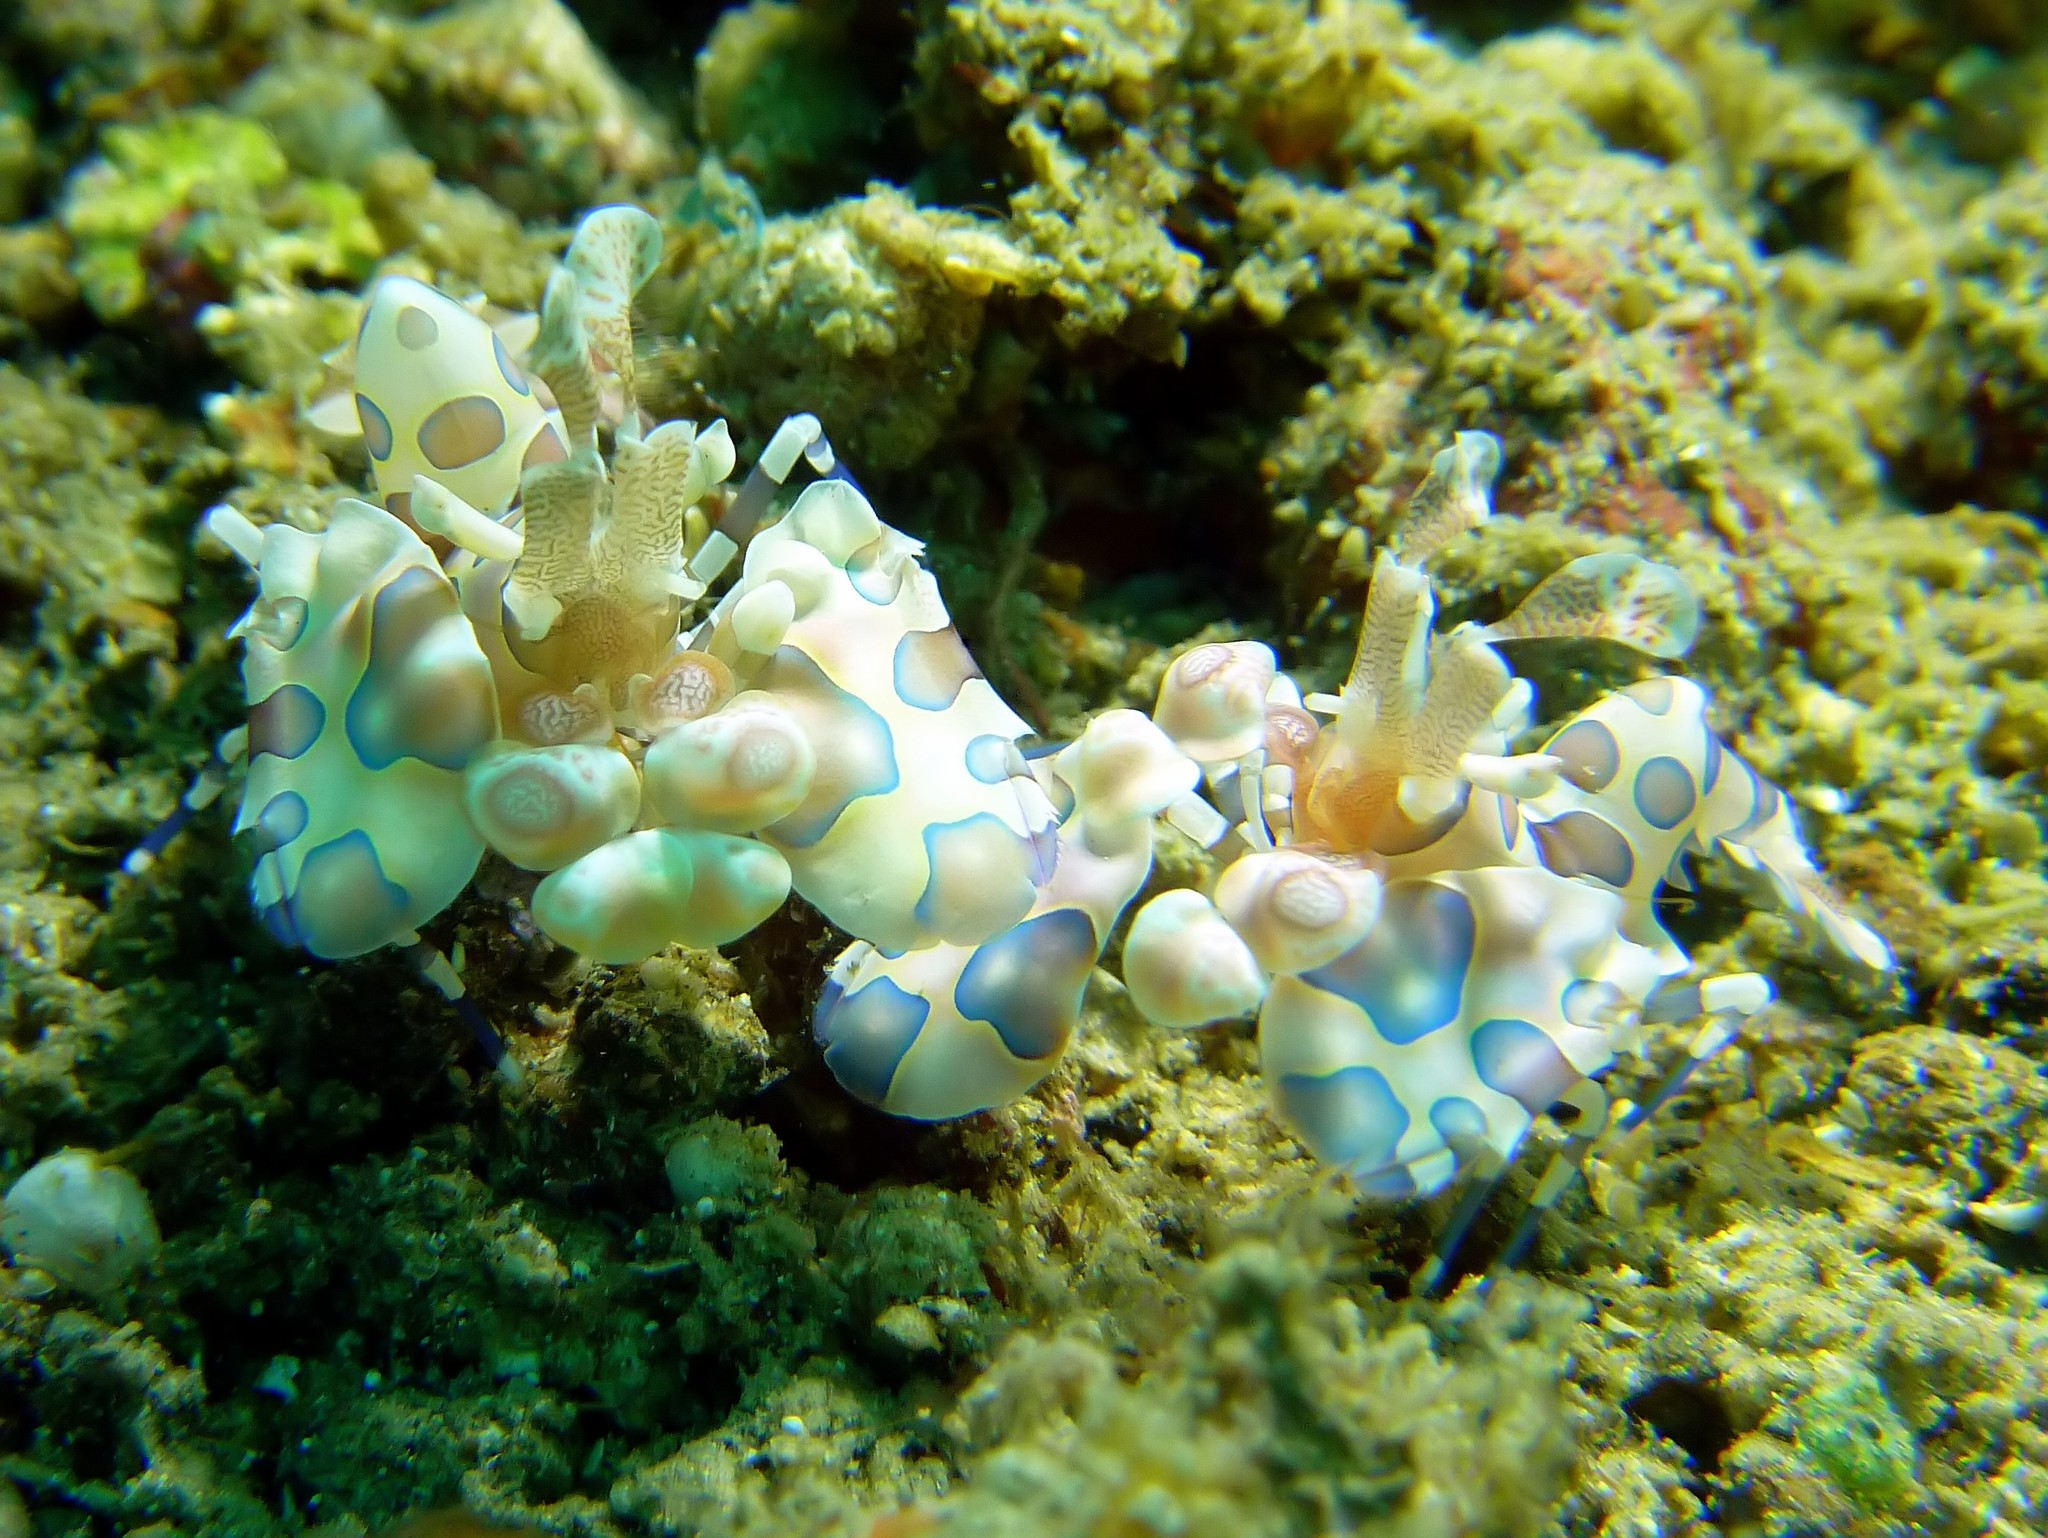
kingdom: Animalia
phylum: Arthropoda
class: Malacostraca
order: Decapoda
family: Palaemonidae
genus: Hymenocera
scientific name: Hymenocera picta
